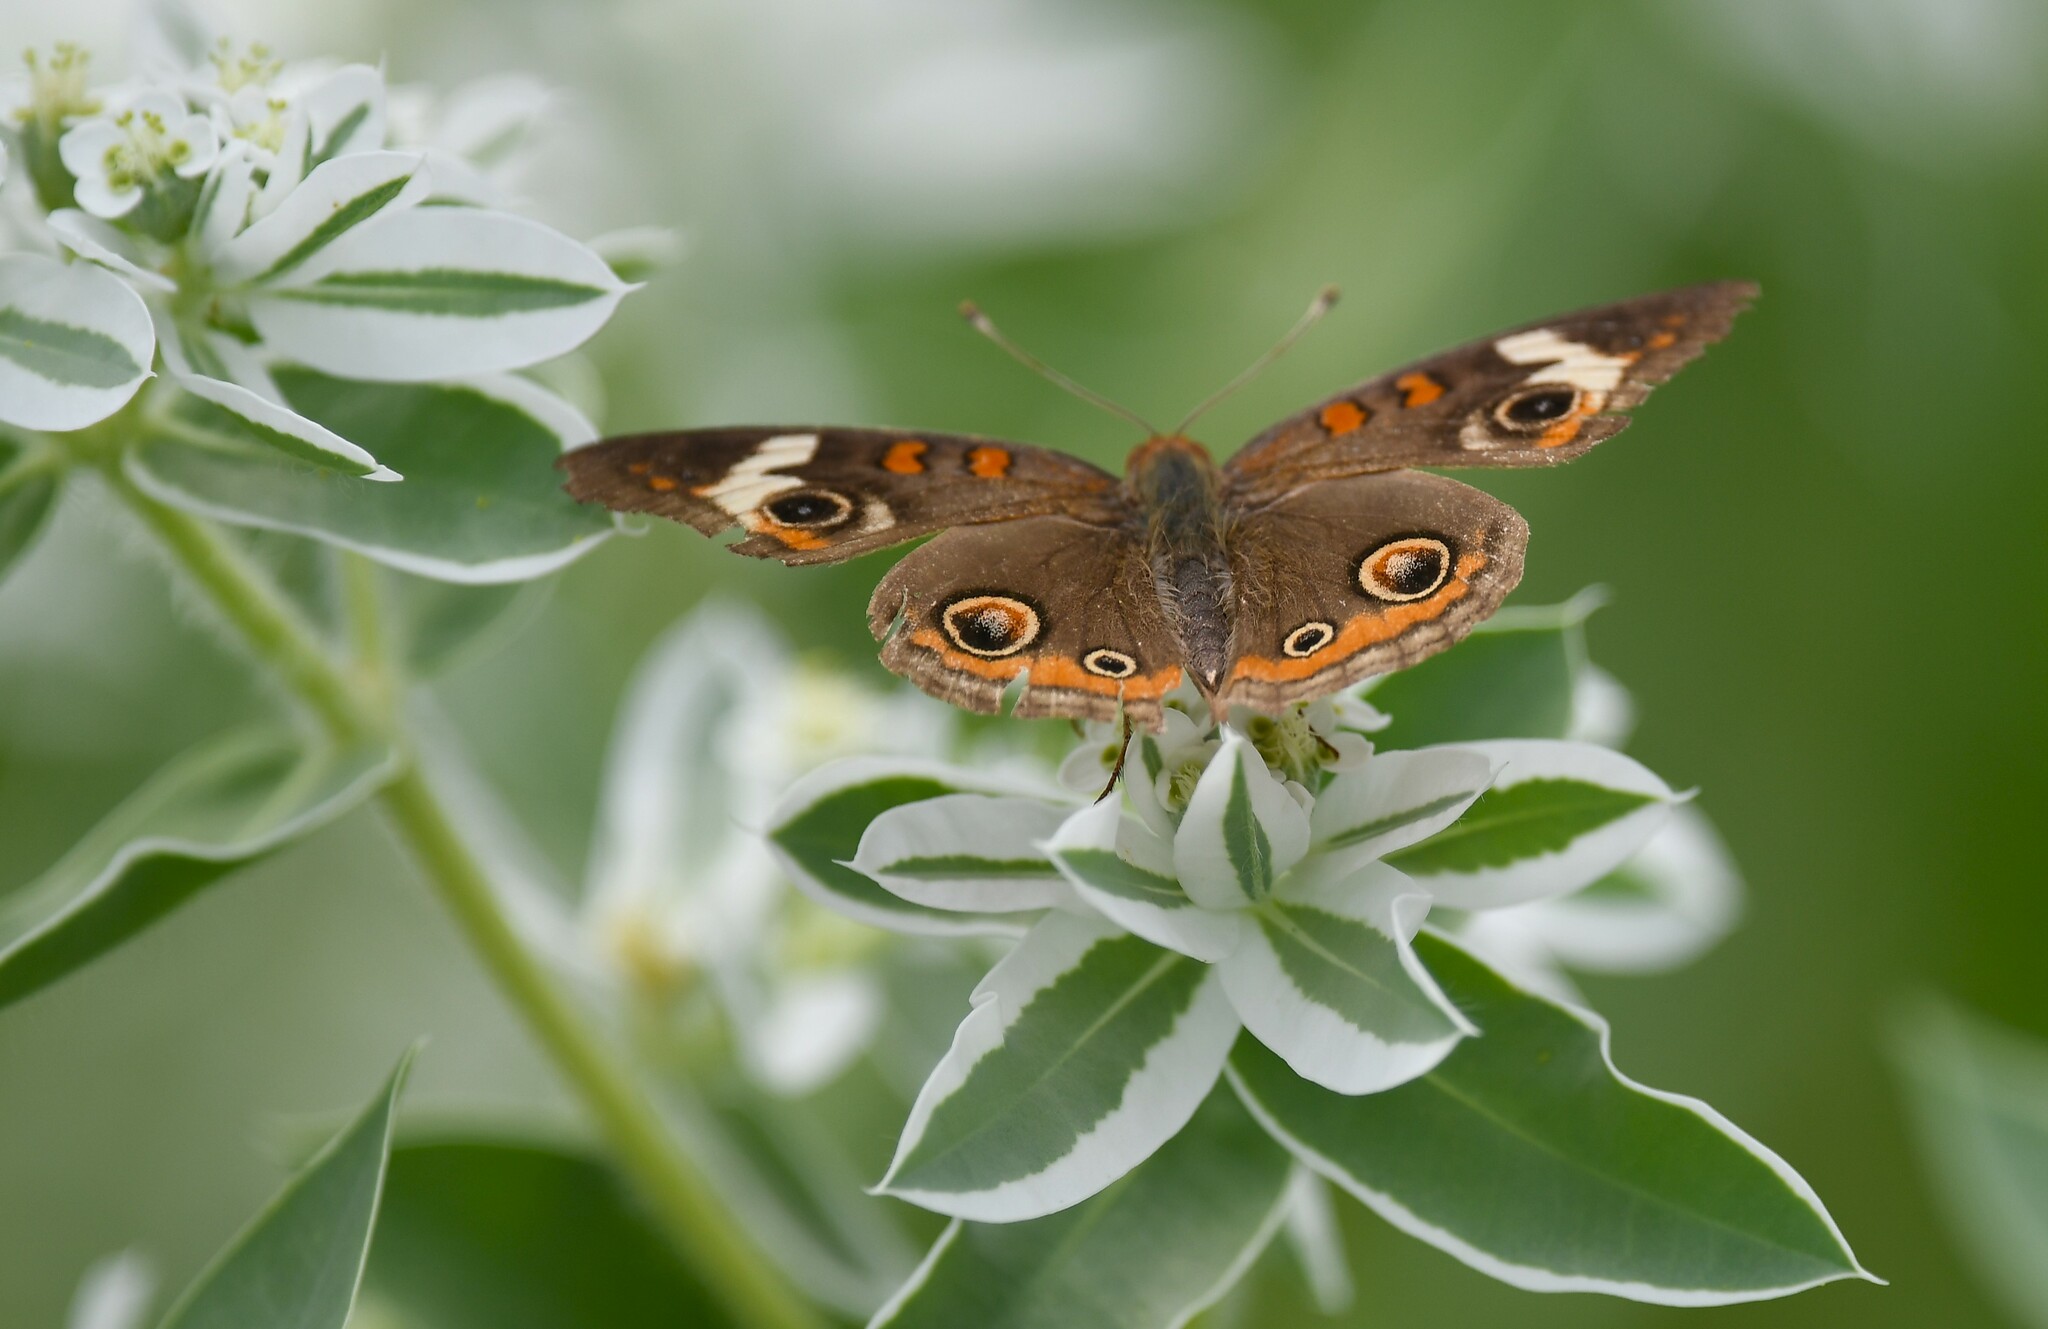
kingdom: Animalia
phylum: Arthropoda
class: Insecta
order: Lepidoptera
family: Nymphalidae
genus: Junonia
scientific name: Junonia coenia
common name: Common buckeye
